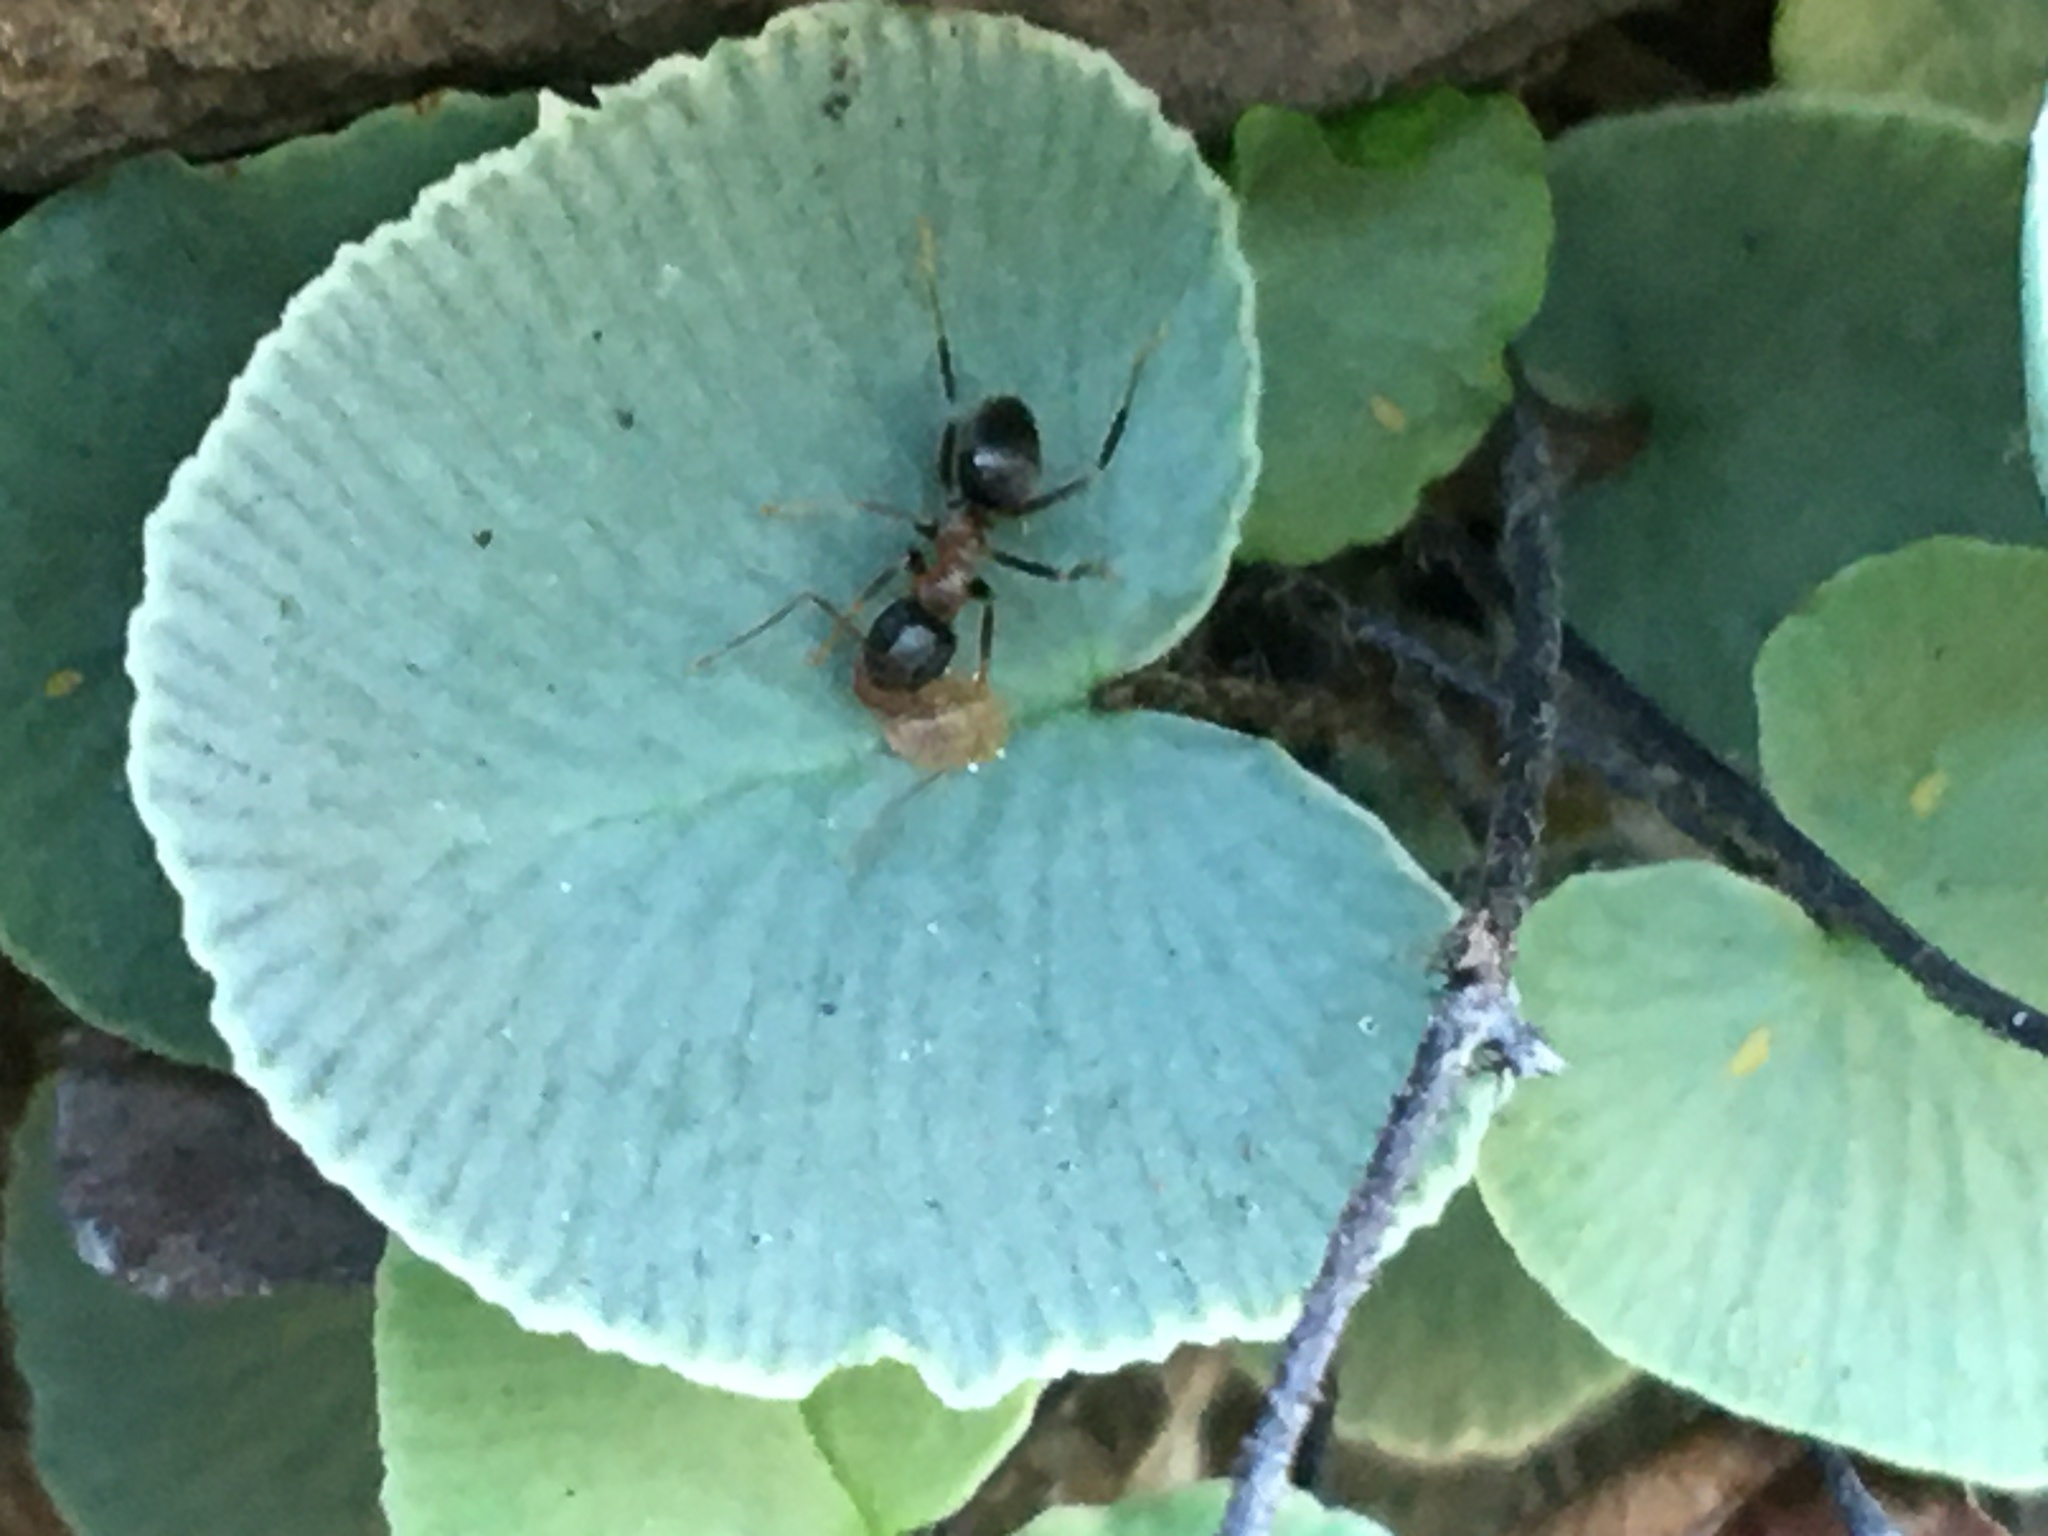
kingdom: Animalia
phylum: Arthropoda
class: Insecta
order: Hymenoptera
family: Formicidae
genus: Lasius
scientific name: Lasius emarginatus
